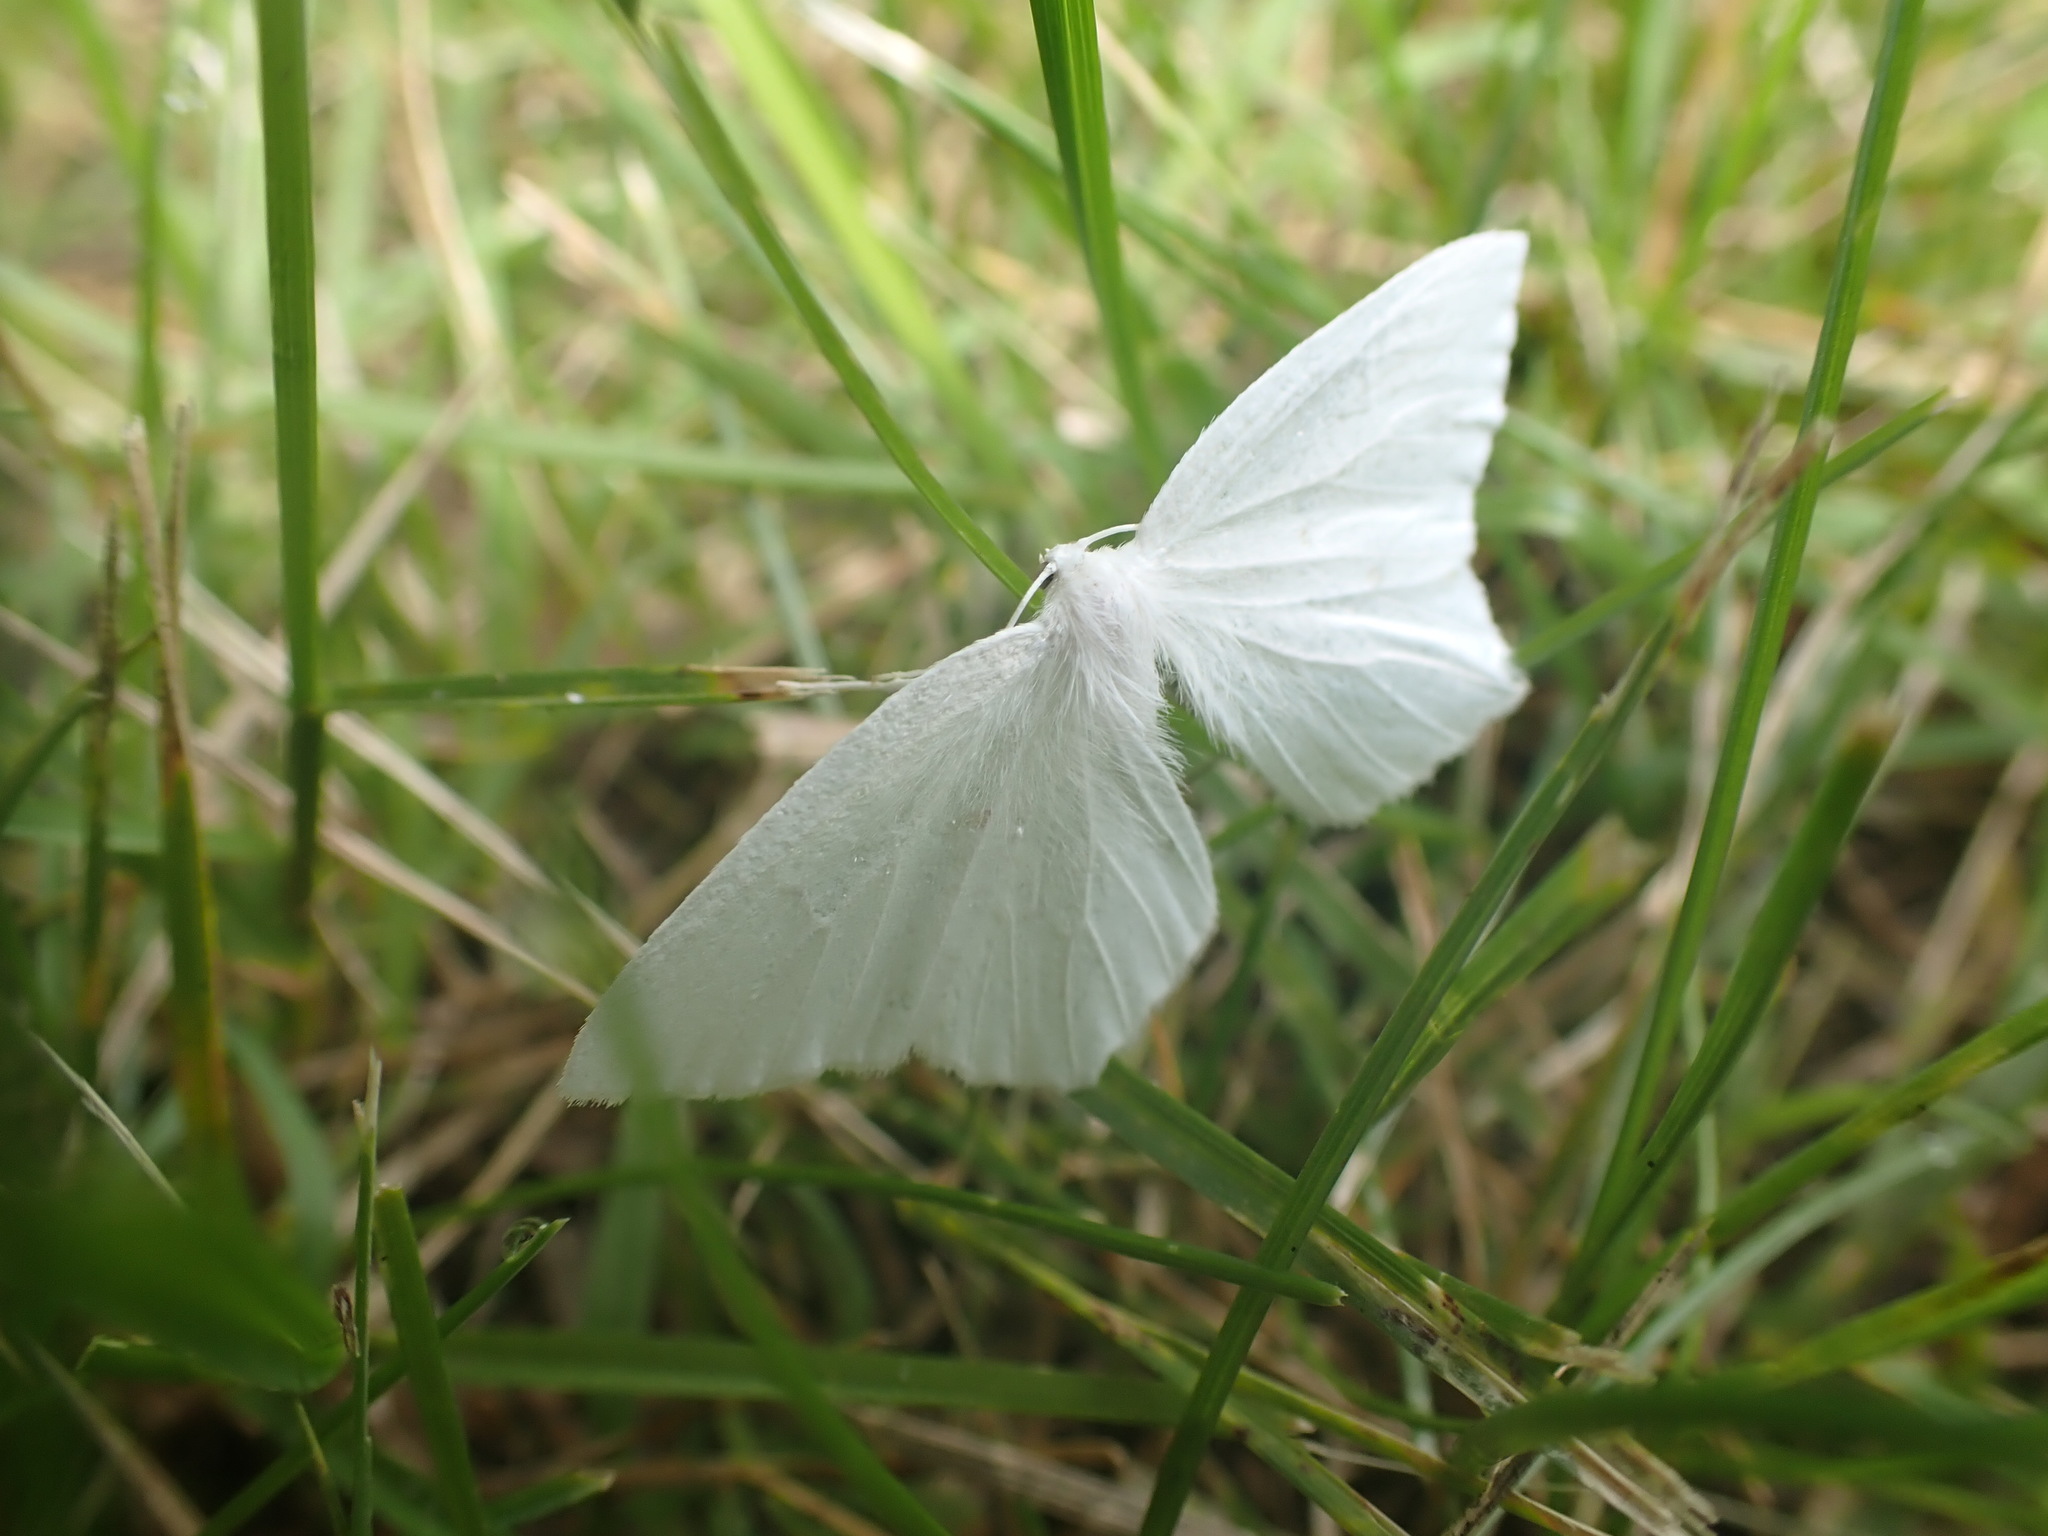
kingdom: Animalia
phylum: Arthropoda
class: Insecta
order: Lepidoptera
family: Geometridae
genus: Eugonobapta
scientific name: Eugonobapta nivosaria
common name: Snowy geometer
